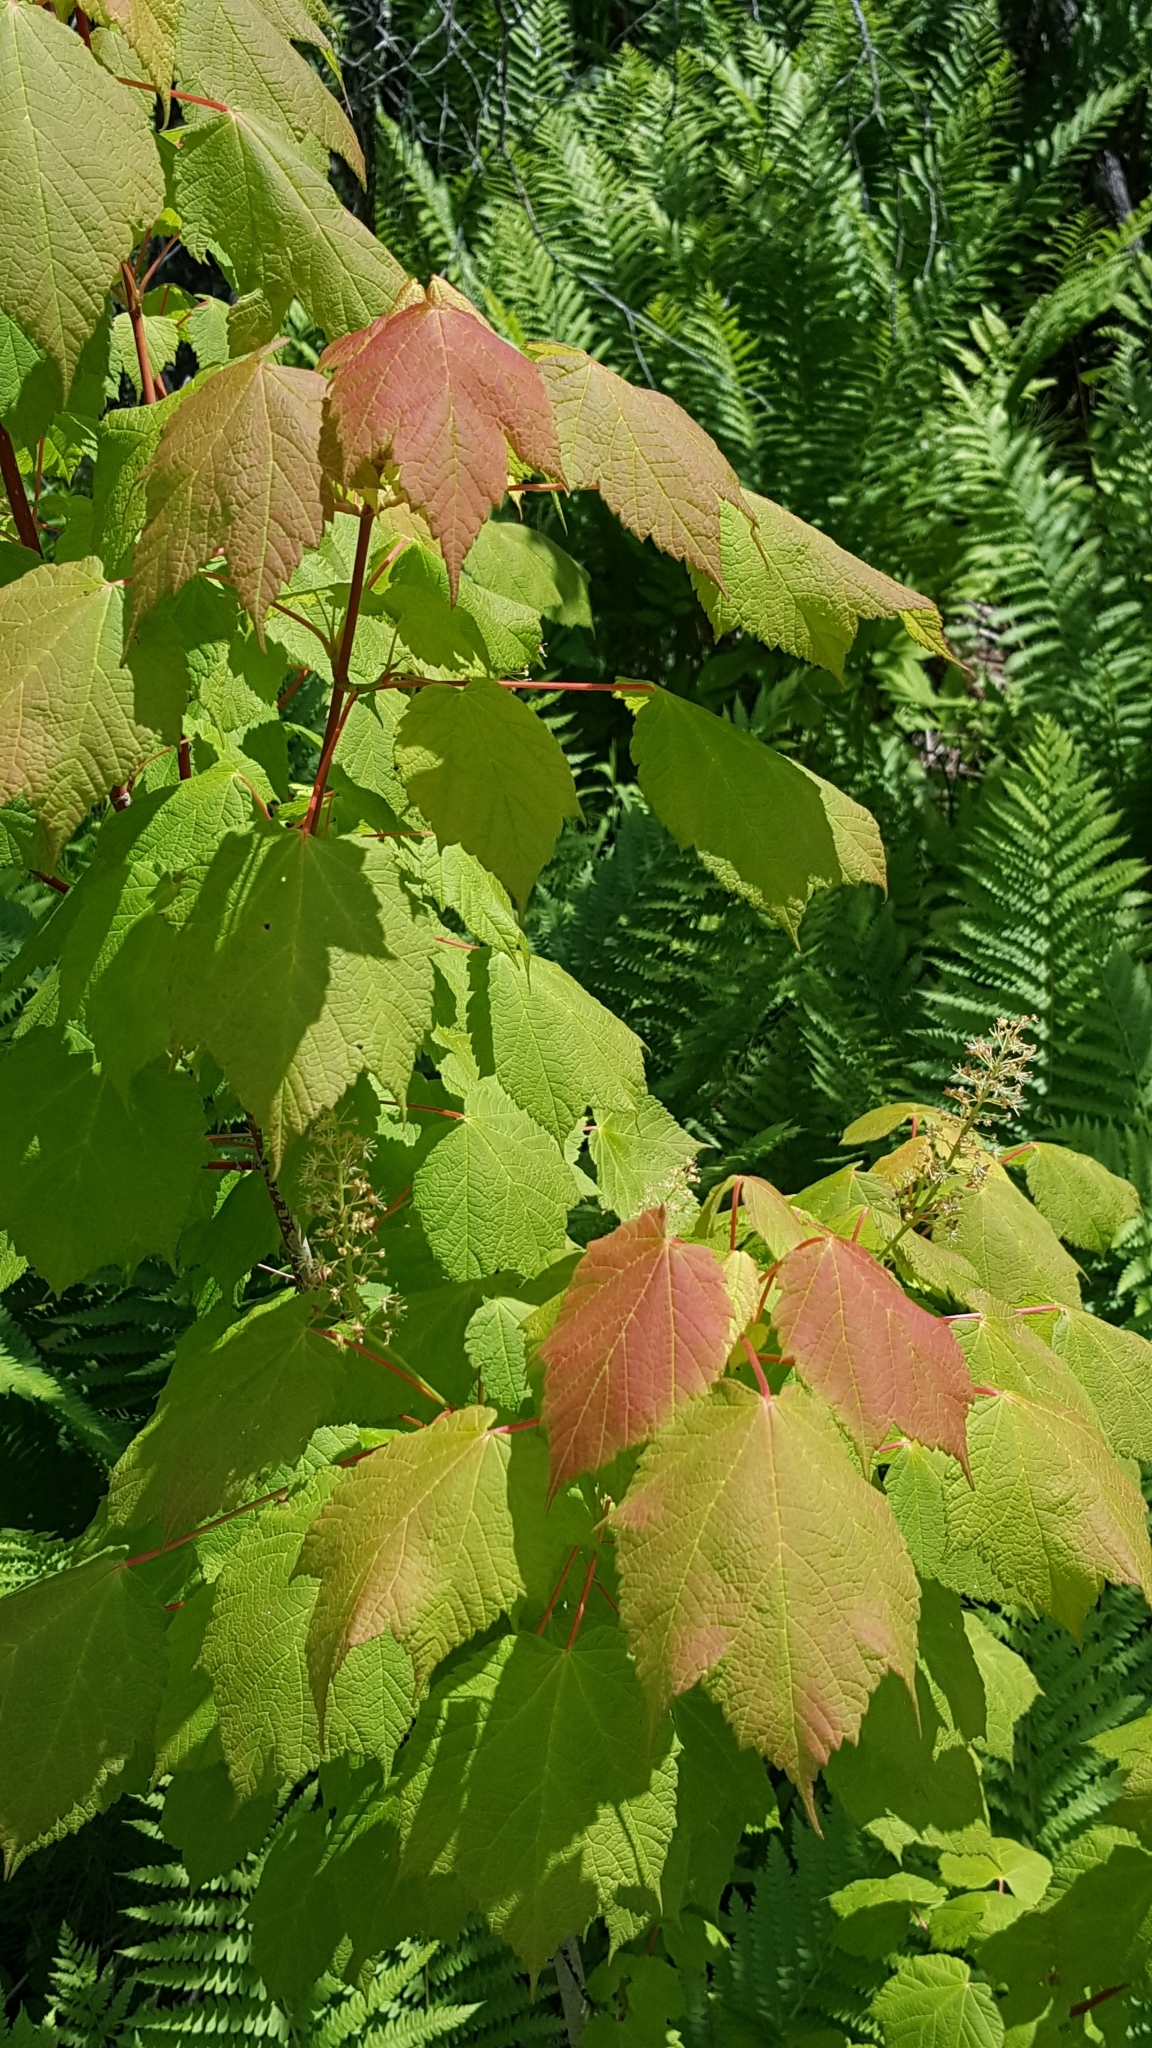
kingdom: Plantae
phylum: Tracheophyta
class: Magnoliopsida
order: Sapindales
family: Sapindaceae
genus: Acer
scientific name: Acer spicatum
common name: Mountain maple
